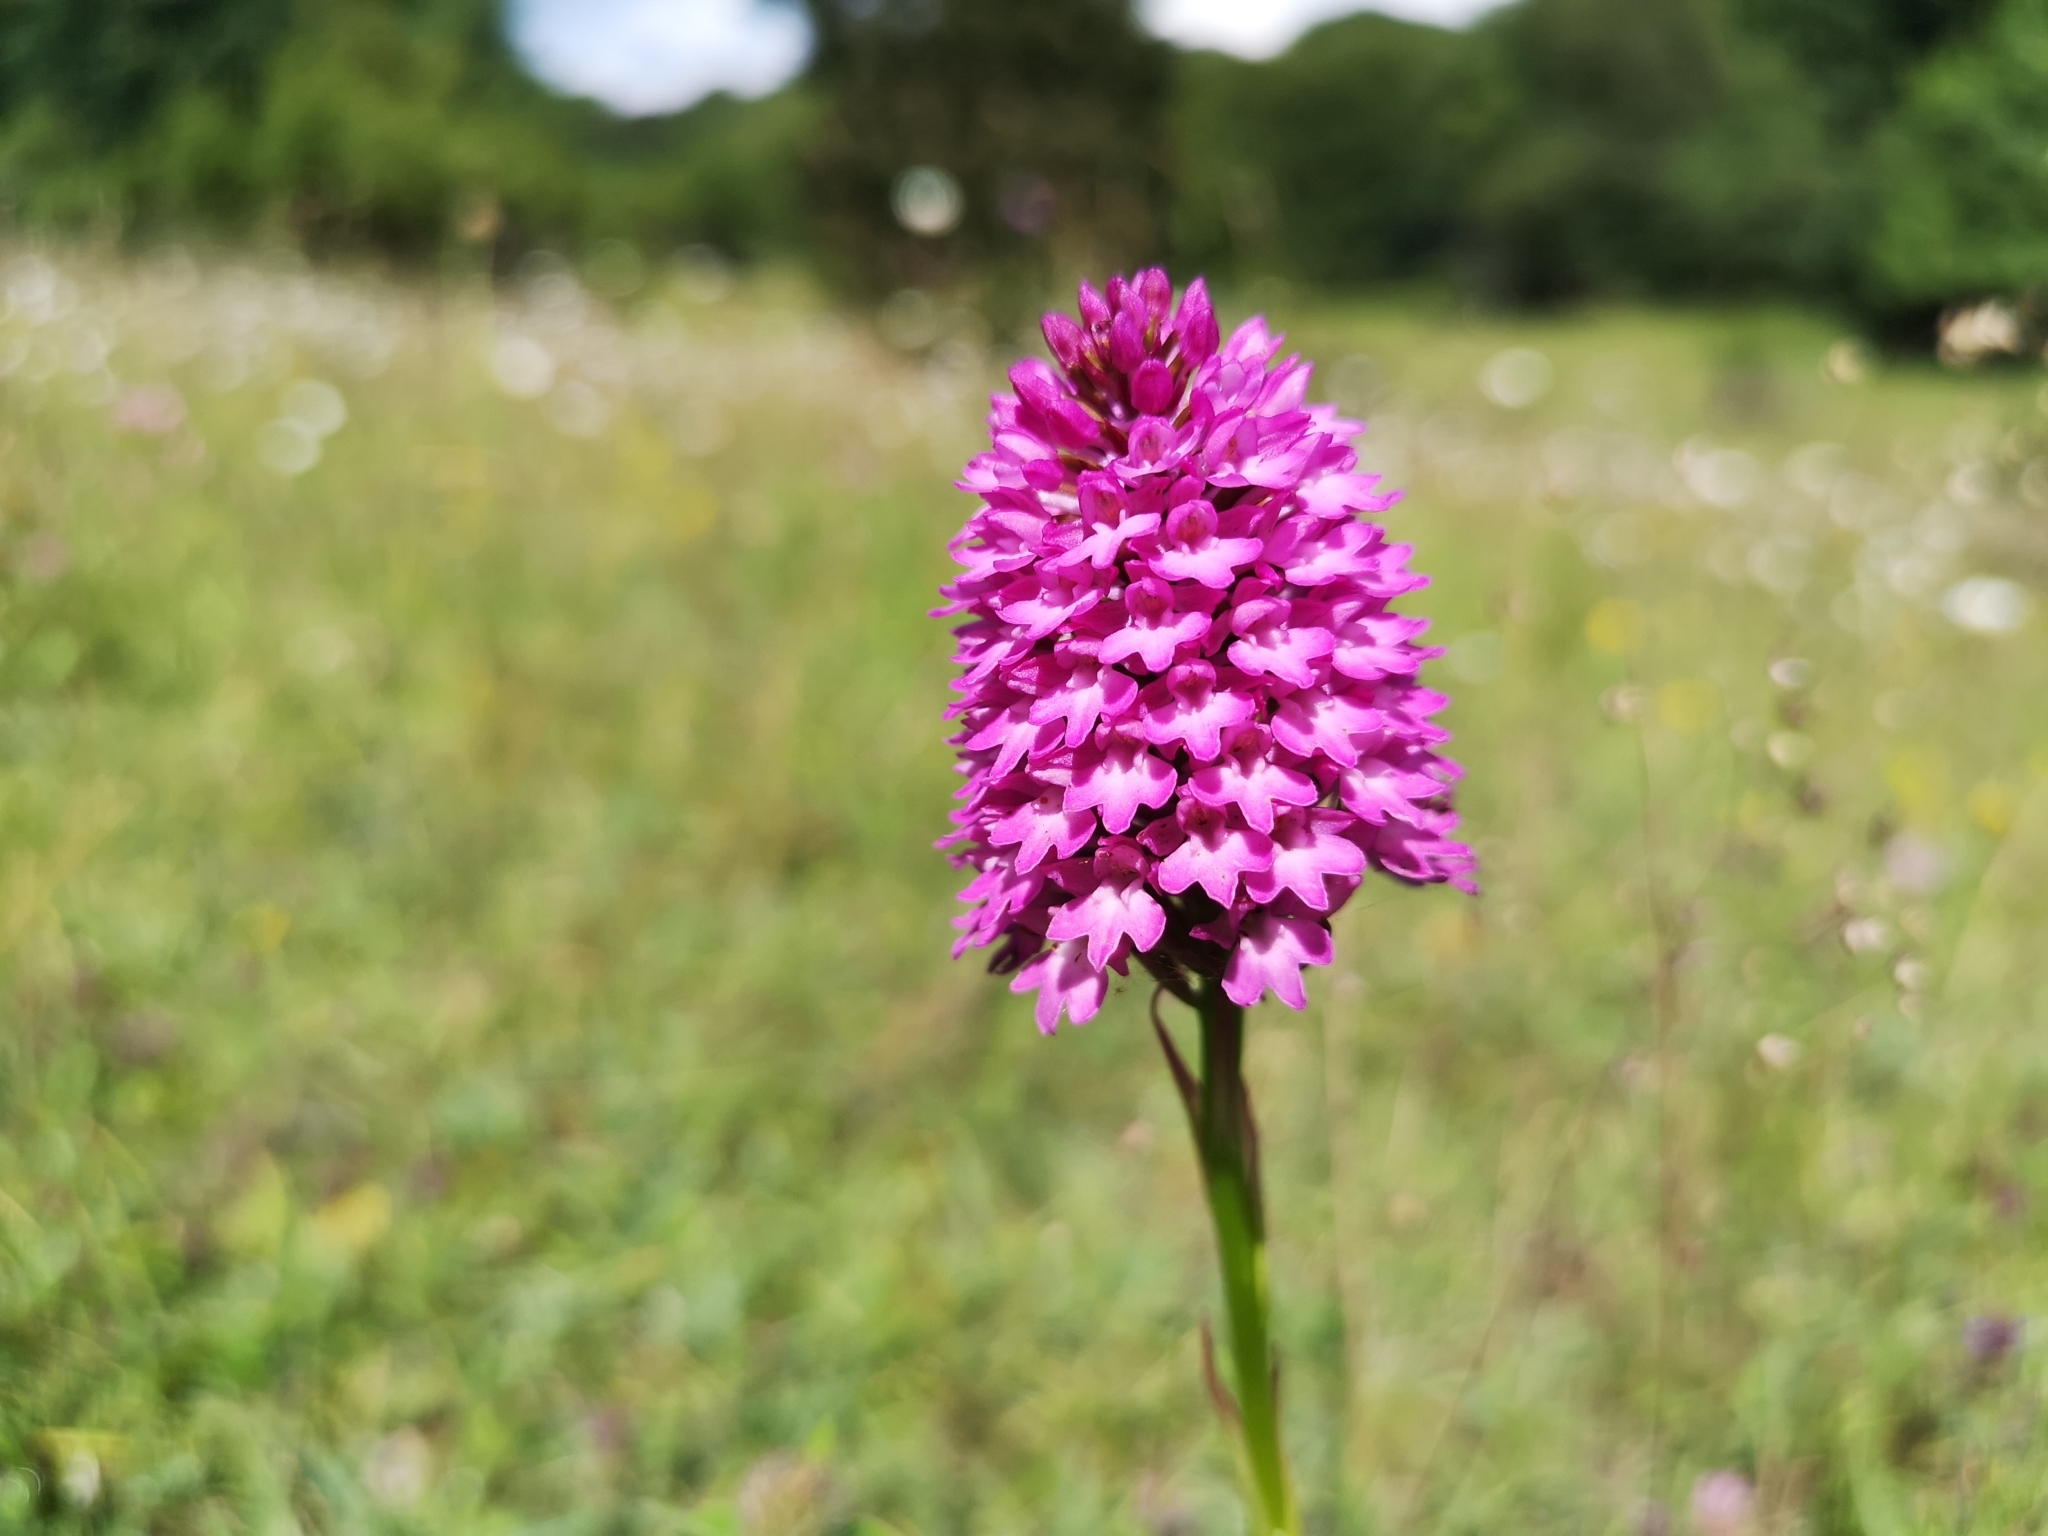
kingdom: Plantae
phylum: Tracheophyta
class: Liliopsida
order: Asparagales
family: Orchidaceae
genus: Anacamptis
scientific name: Anacamptis pyramidalis
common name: Pyramidal orchid
